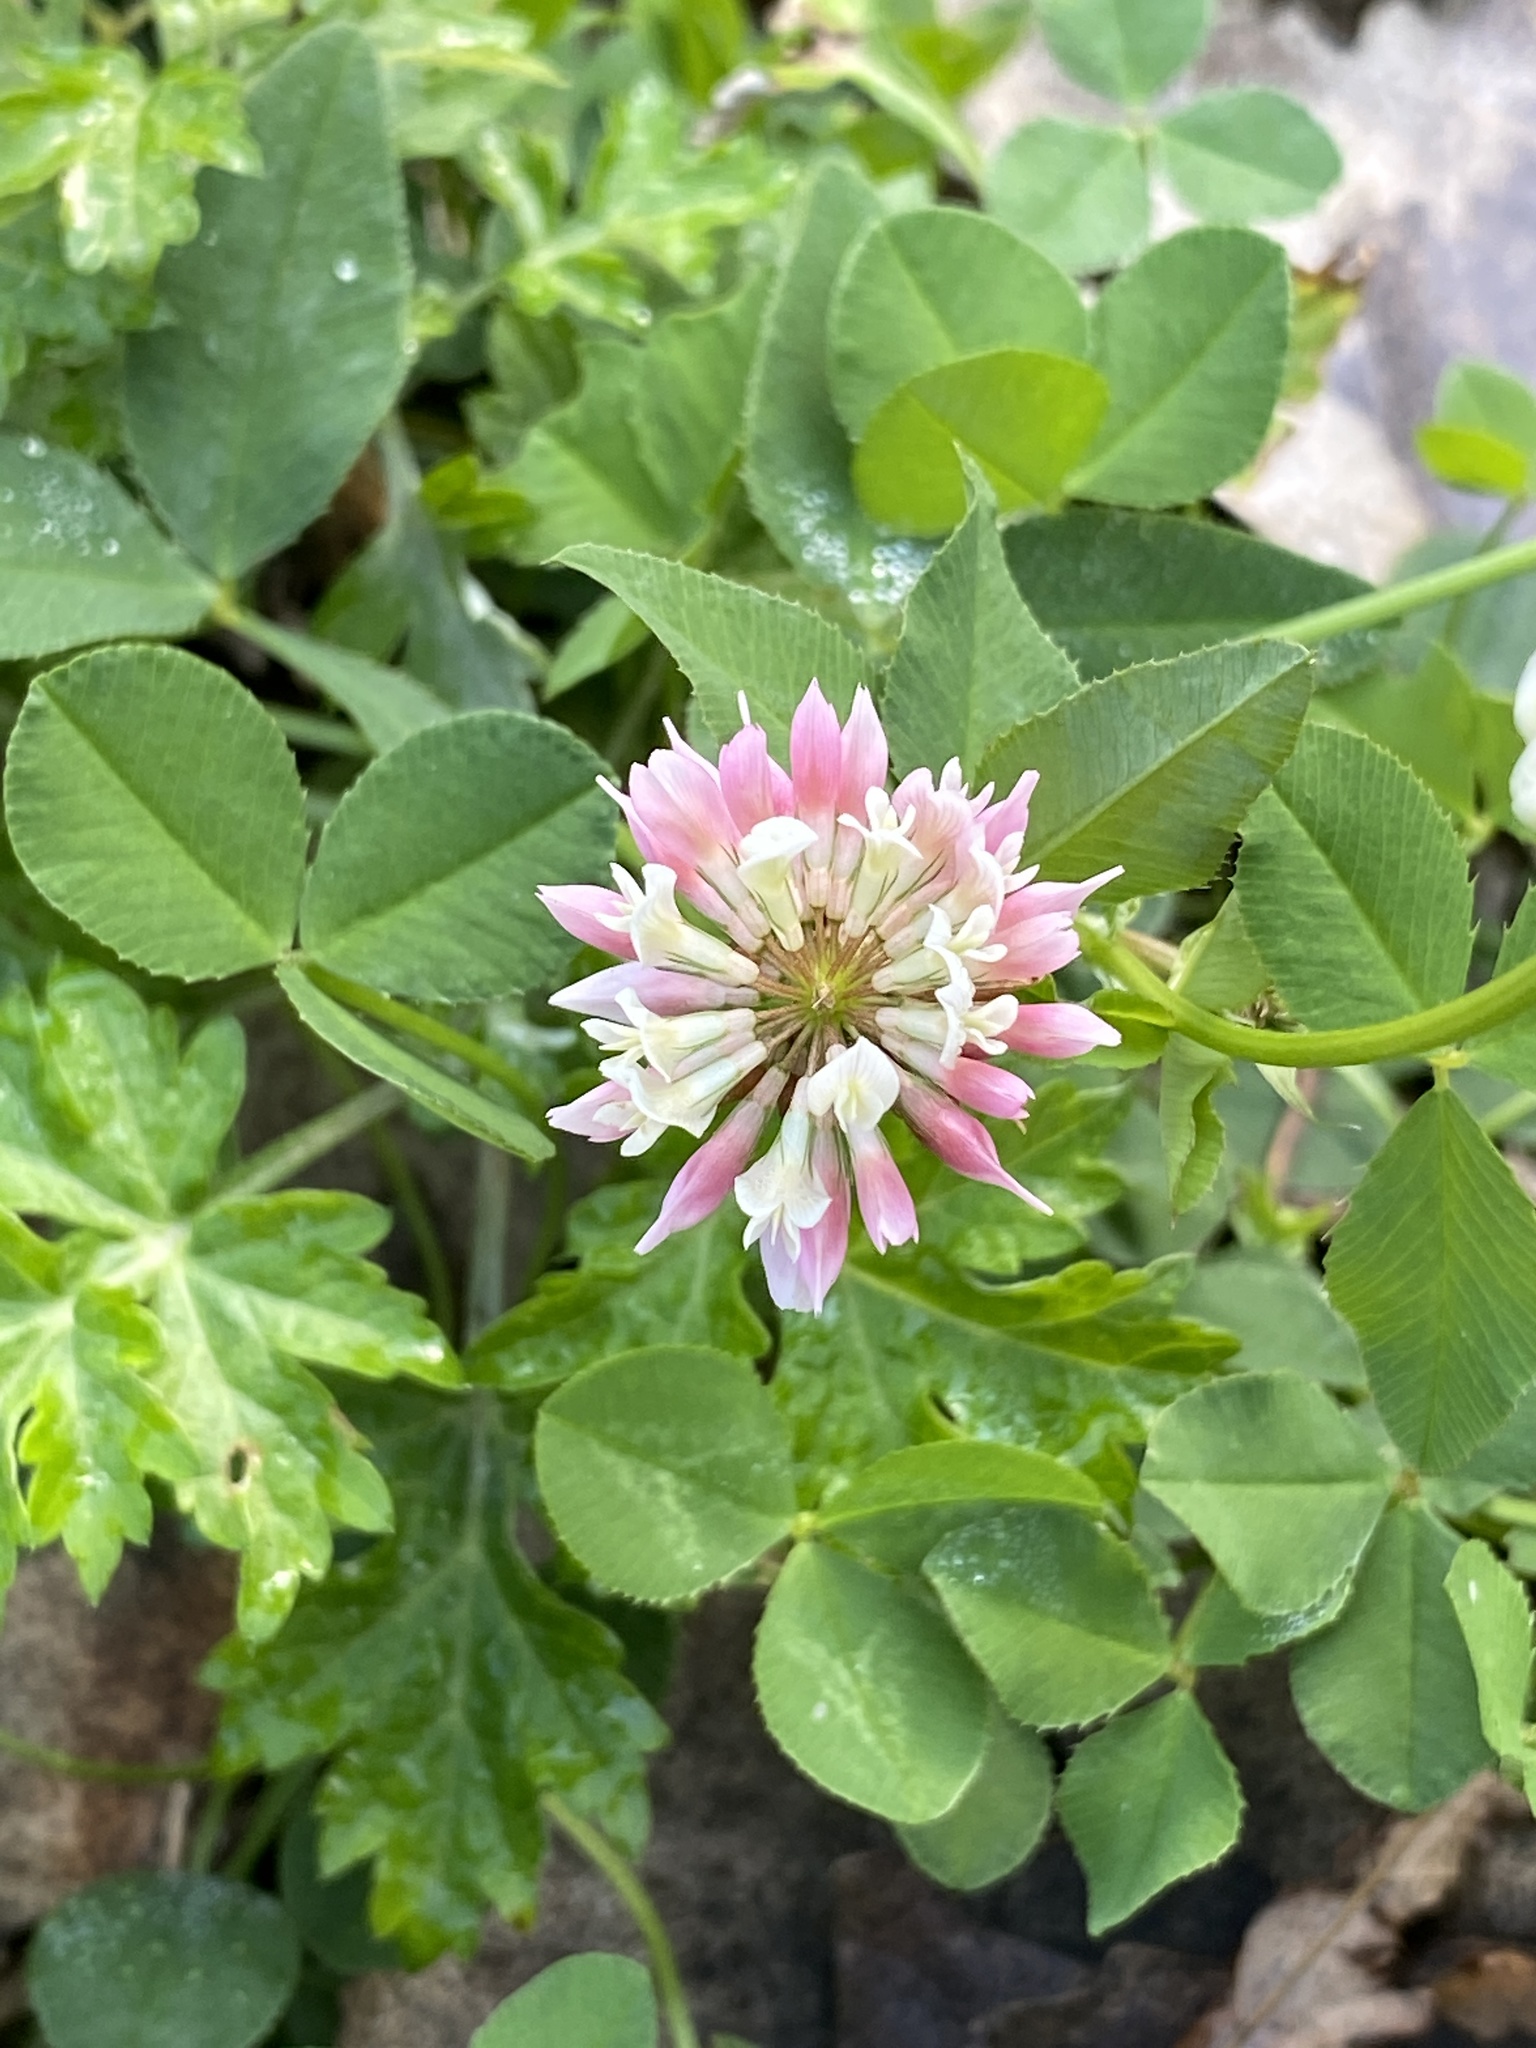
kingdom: Plantae
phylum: Tracheophyta
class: Magnoliopsida
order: Fabales
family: Fabaceae
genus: Trifolium
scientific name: Trifolium hybridum
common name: Alsike clover
